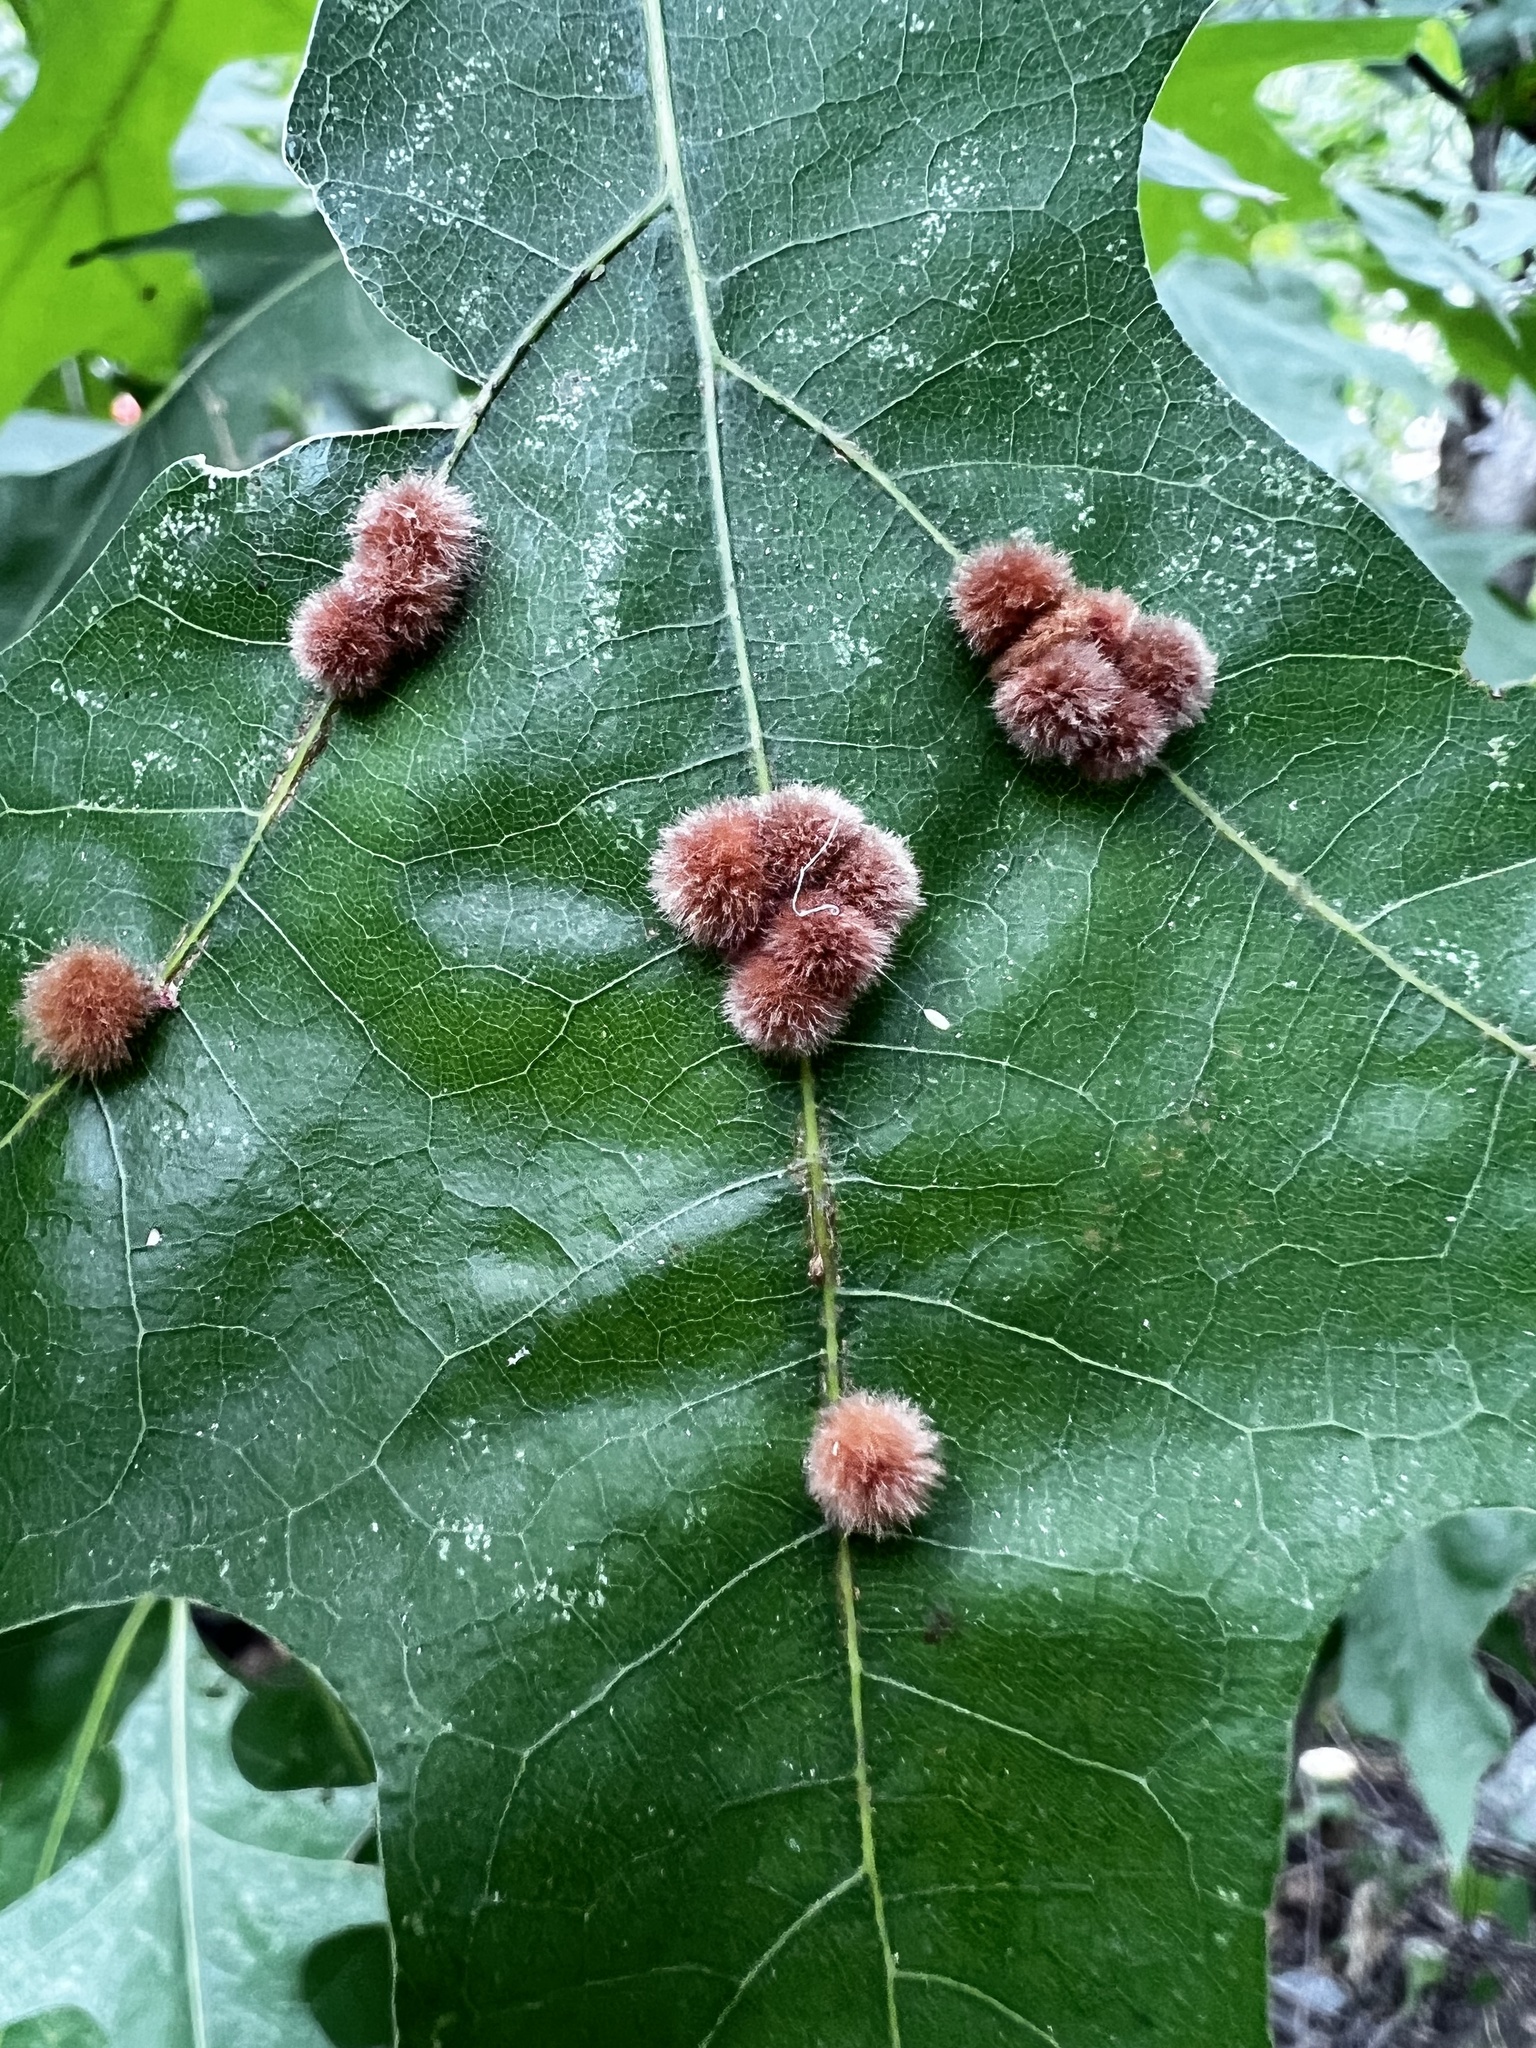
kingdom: Animalia
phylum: Arthropoda
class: Insecta
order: Hymenoptera
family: Cynipidae
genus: Callirhytis
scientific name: Callirhytis
